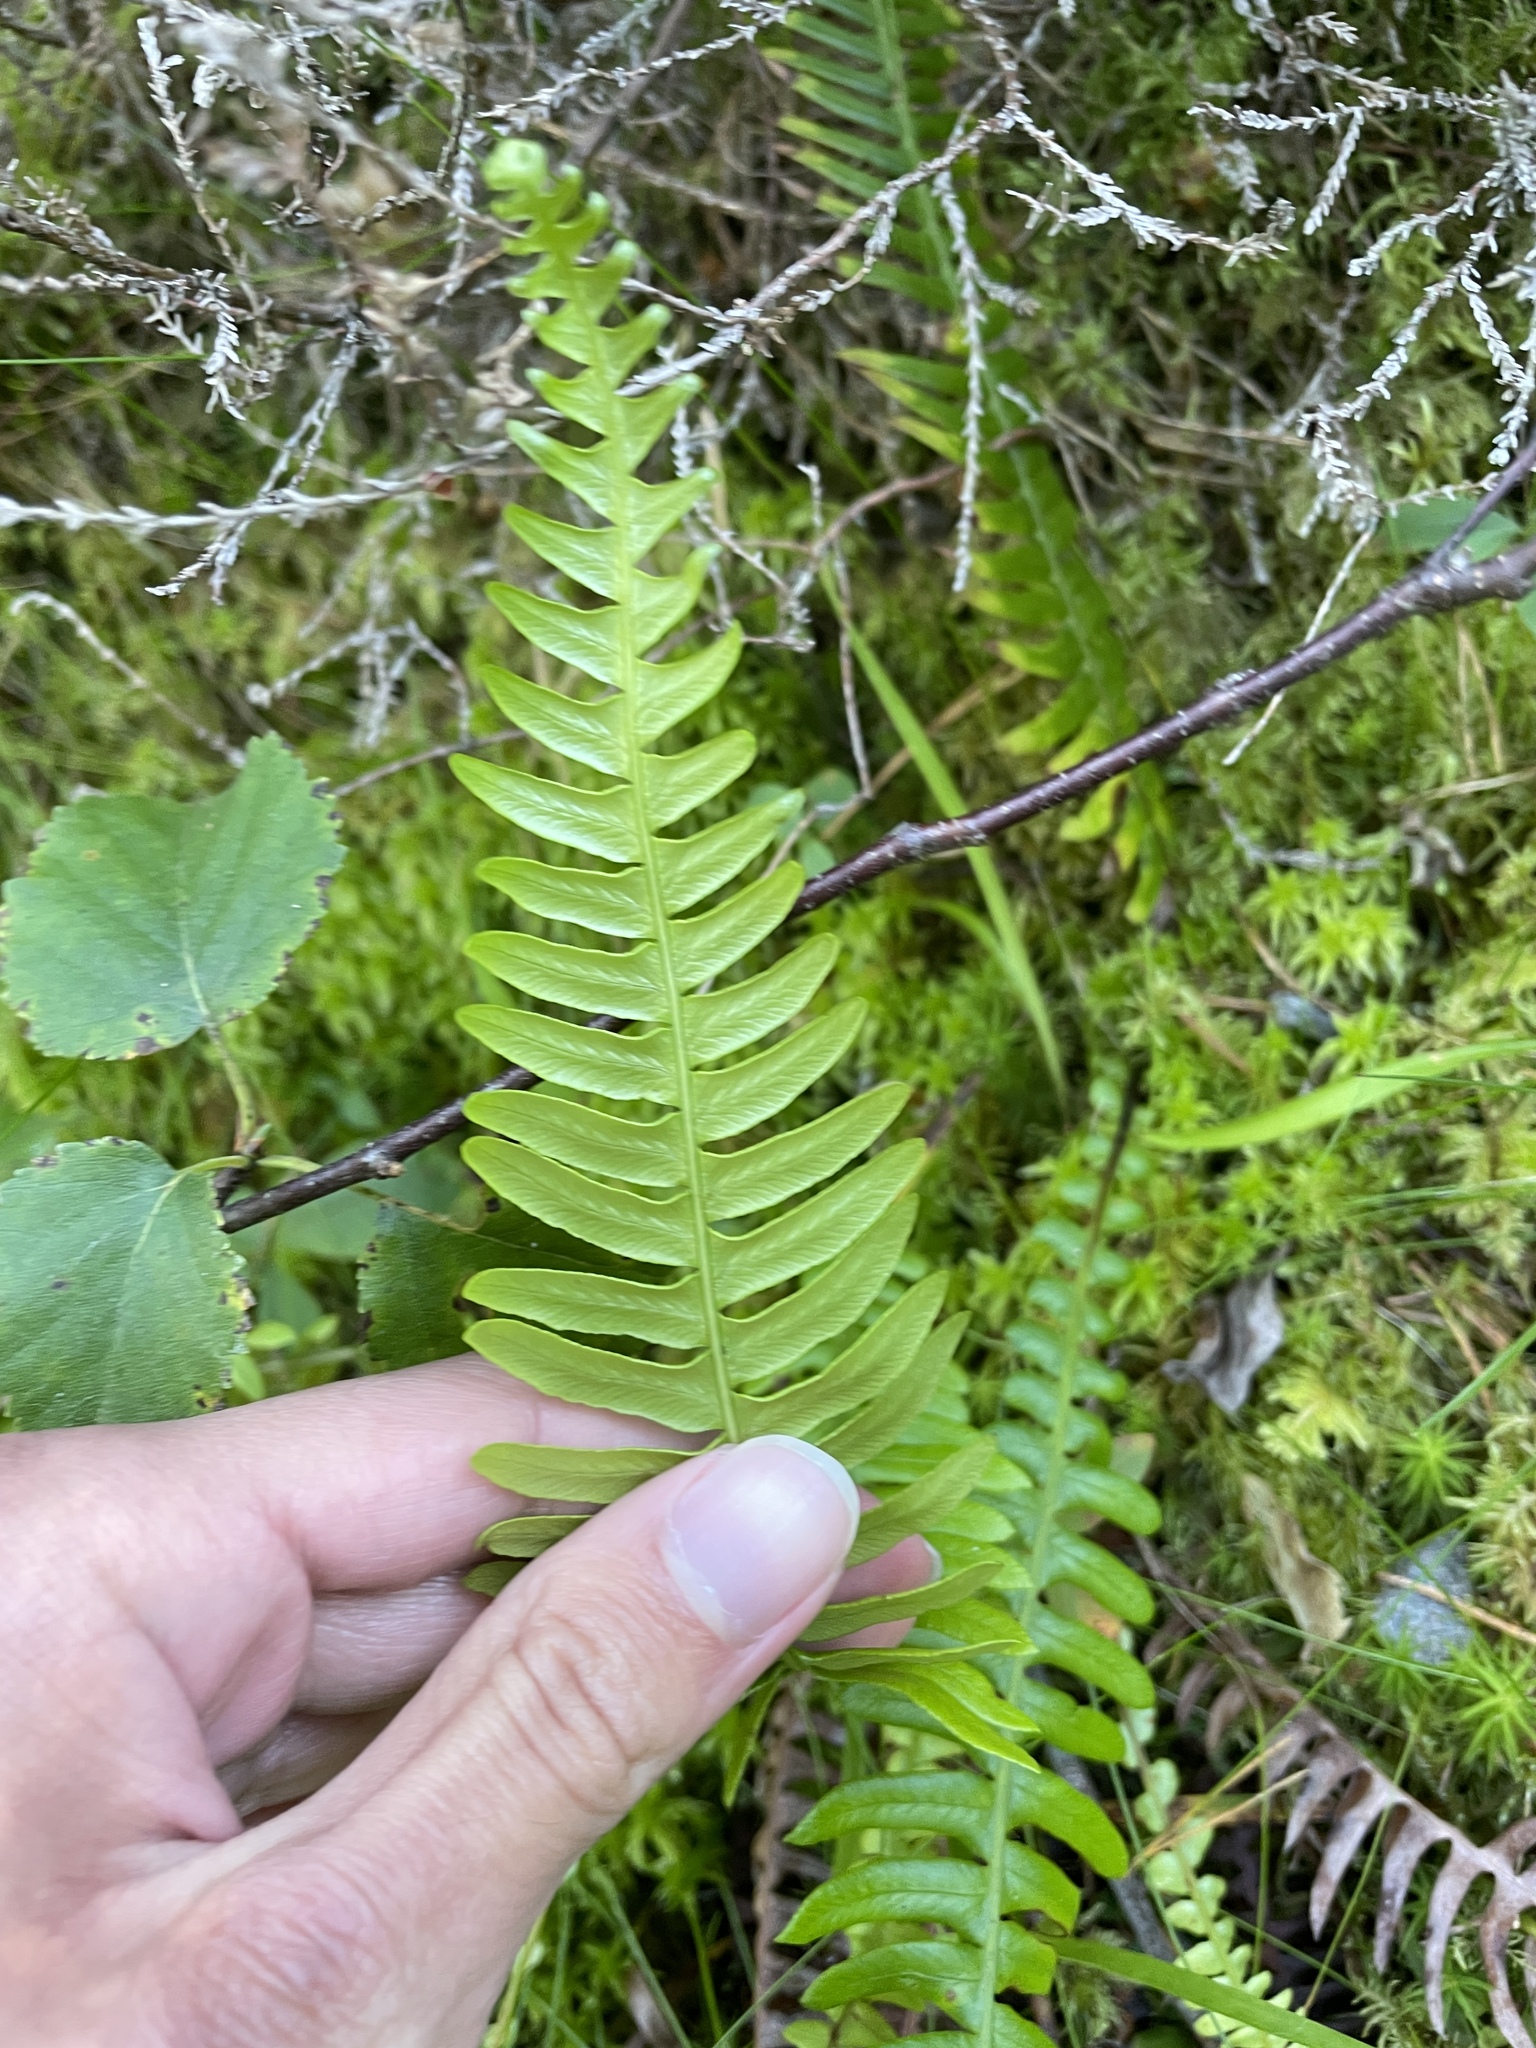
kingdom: Plantae
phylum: Tracheophyta
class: Polypodiopsida
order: Polypodiales
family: Blechnaceae
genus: Struthiopteris
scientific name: Struthiopteris spicant
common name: Deer fern
